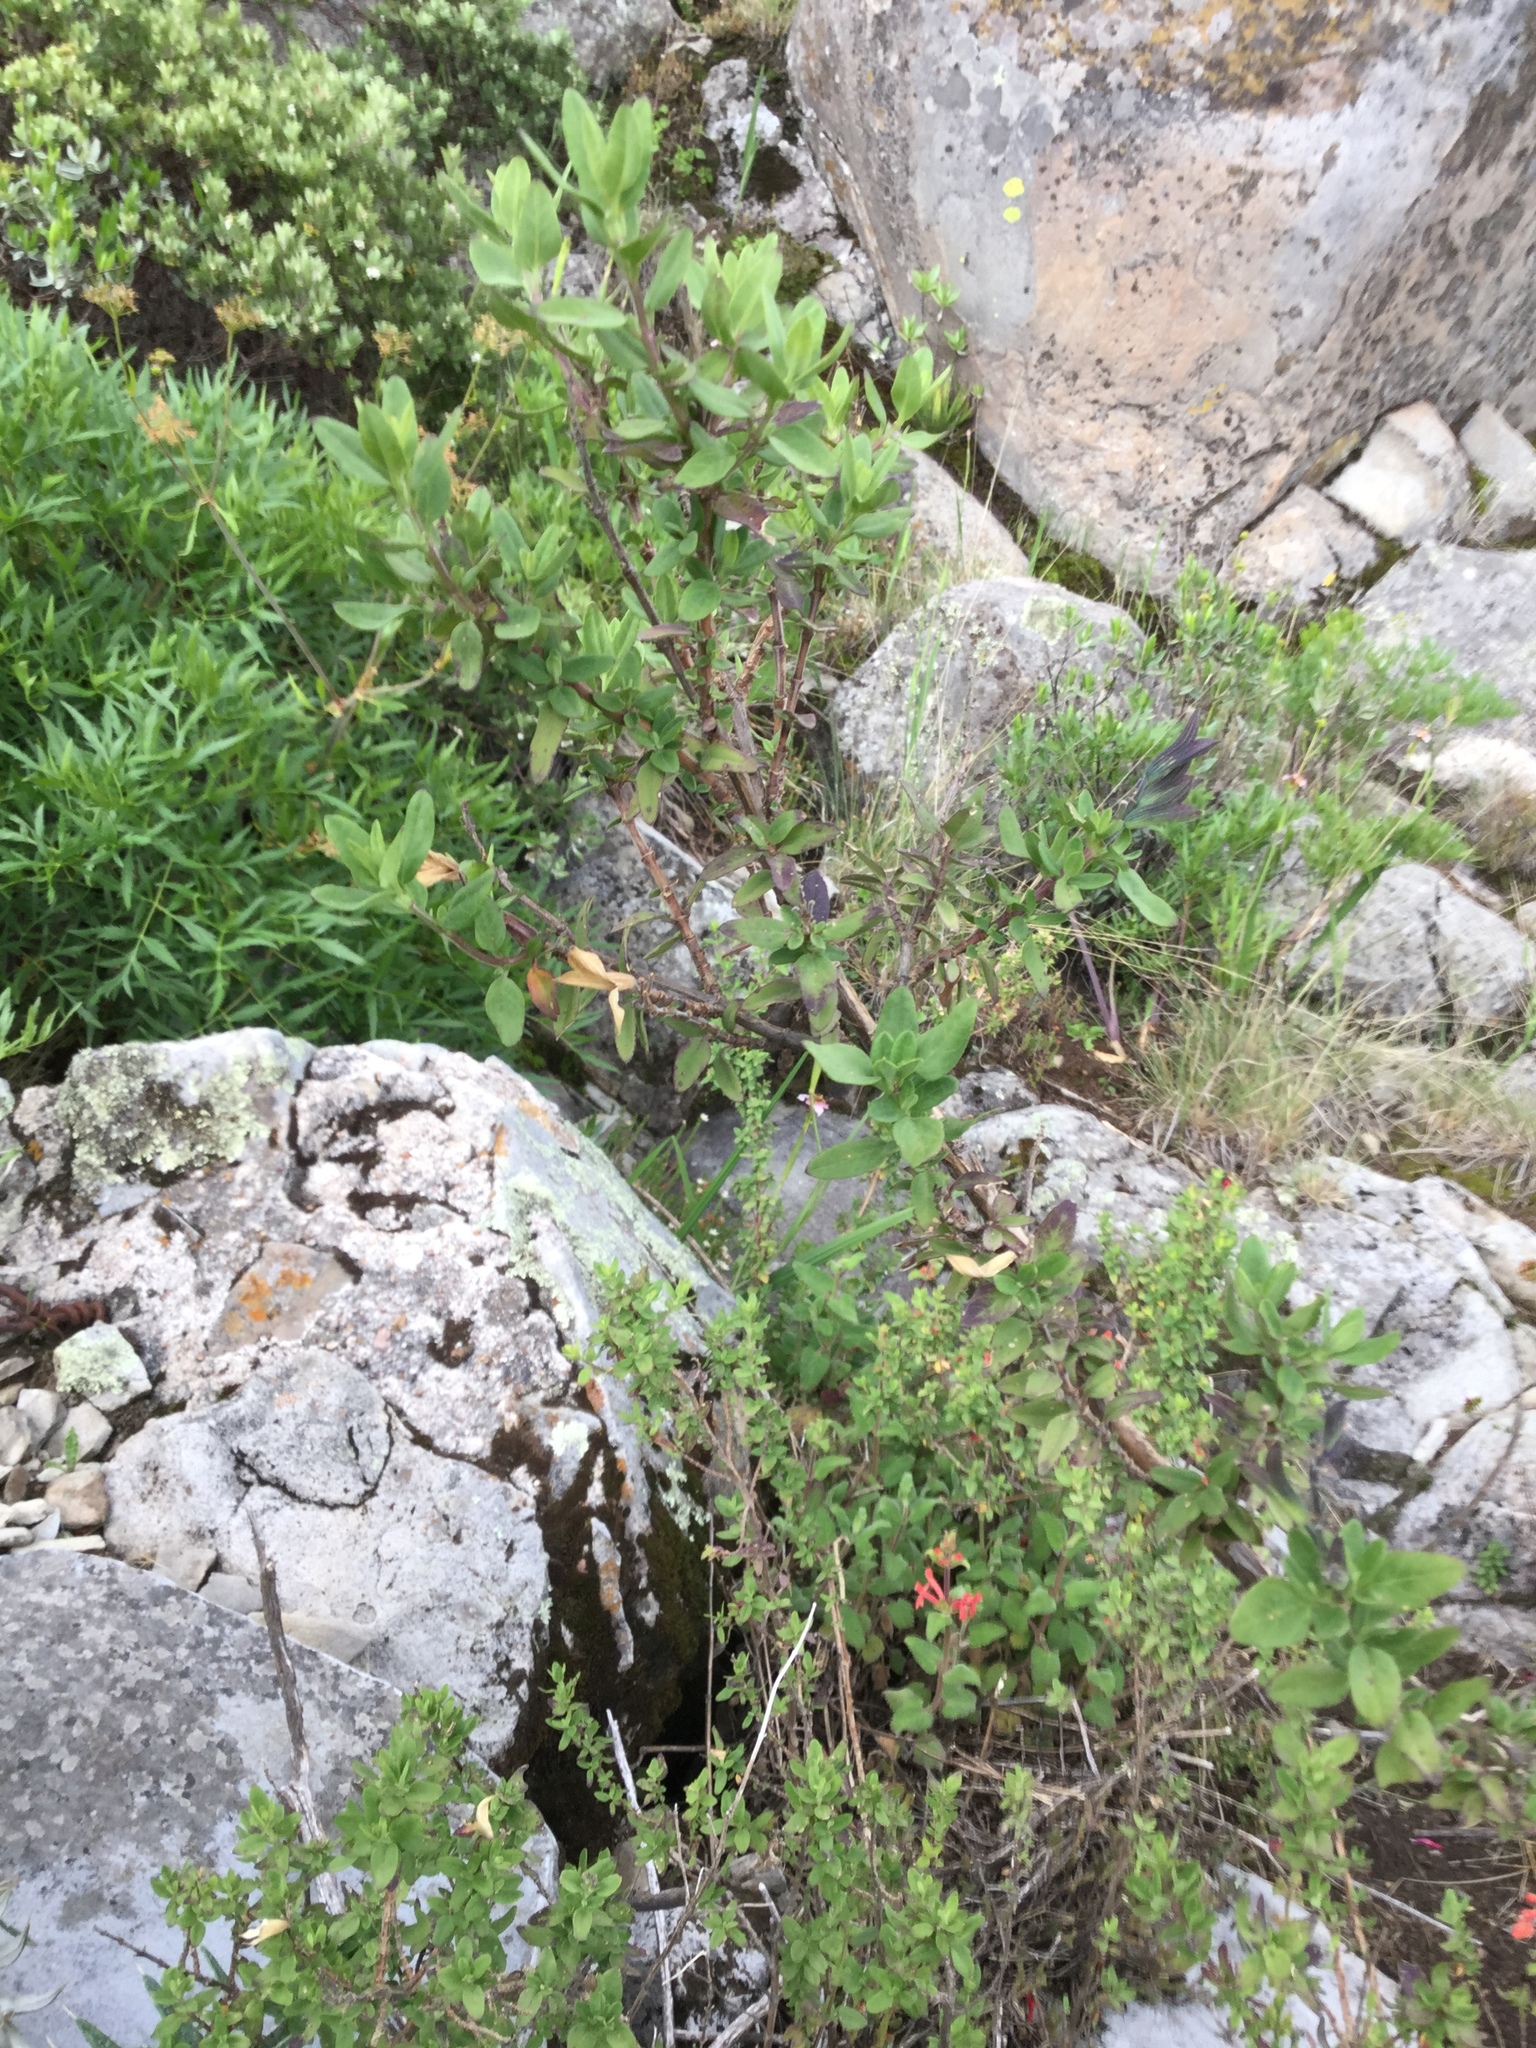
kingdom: Plantae
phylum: Tracheophyta
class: Magnoliopsida
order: Lamiales
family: Lamiaceae
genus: Salvia
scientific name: Salvia microphylla
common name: Baby sage
